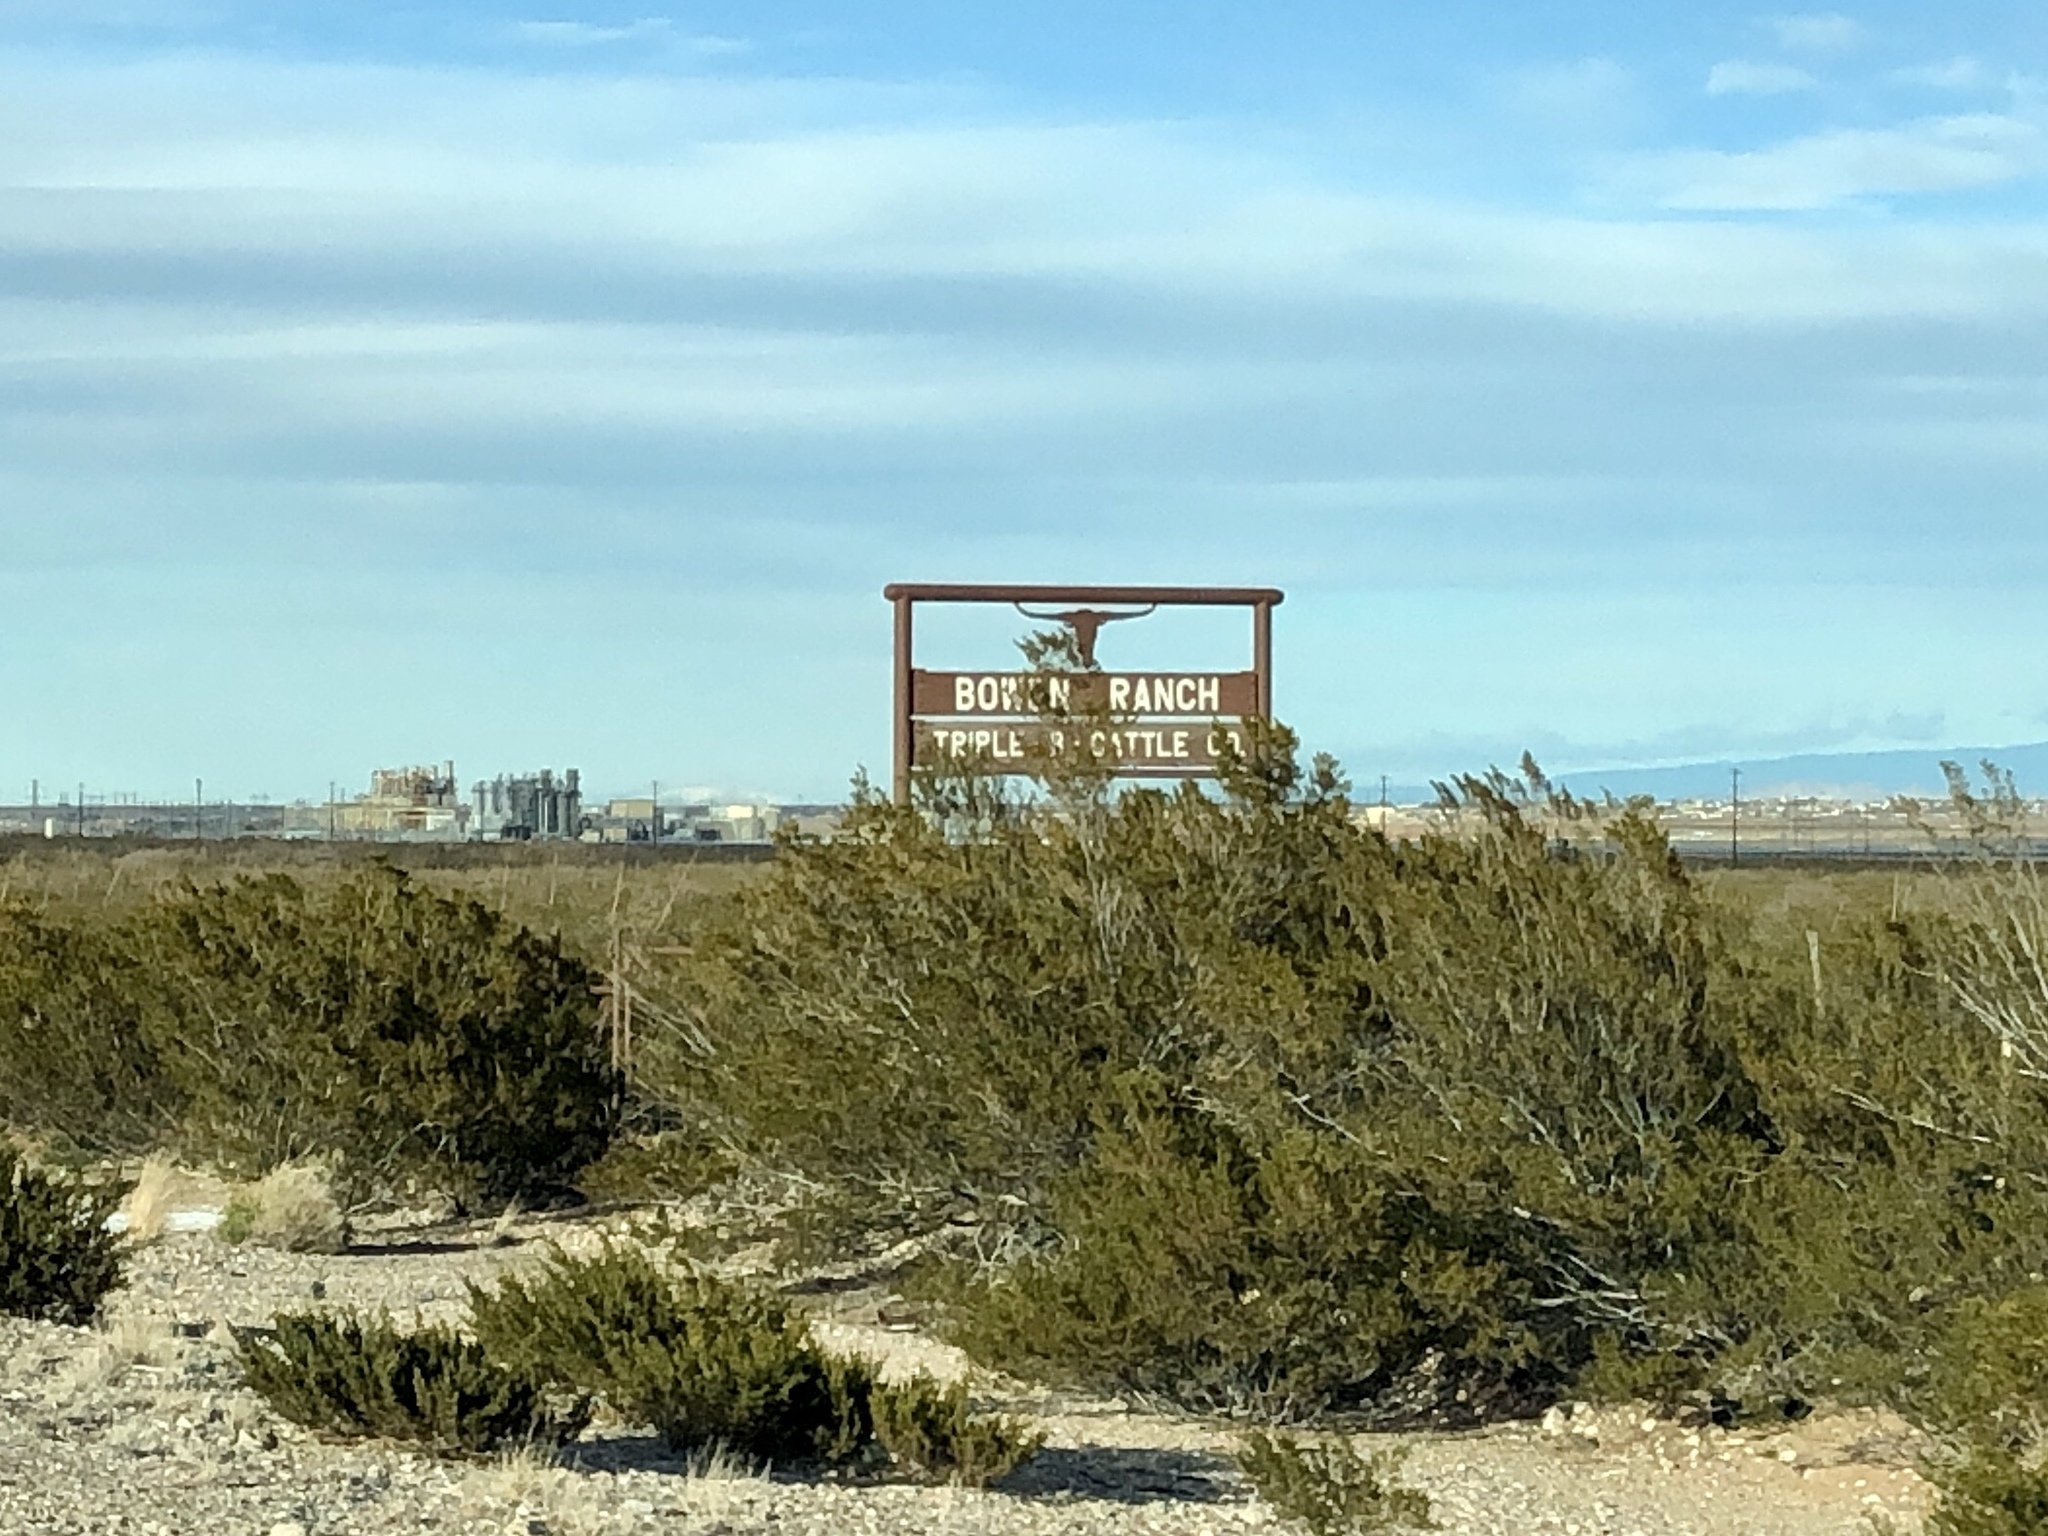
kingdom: Plantae
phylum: Tracheophyta
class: Magnoliopsida
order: Zygophyllales
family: Zygophyllaceae
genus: Larrea
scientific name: Larrea tridentata
